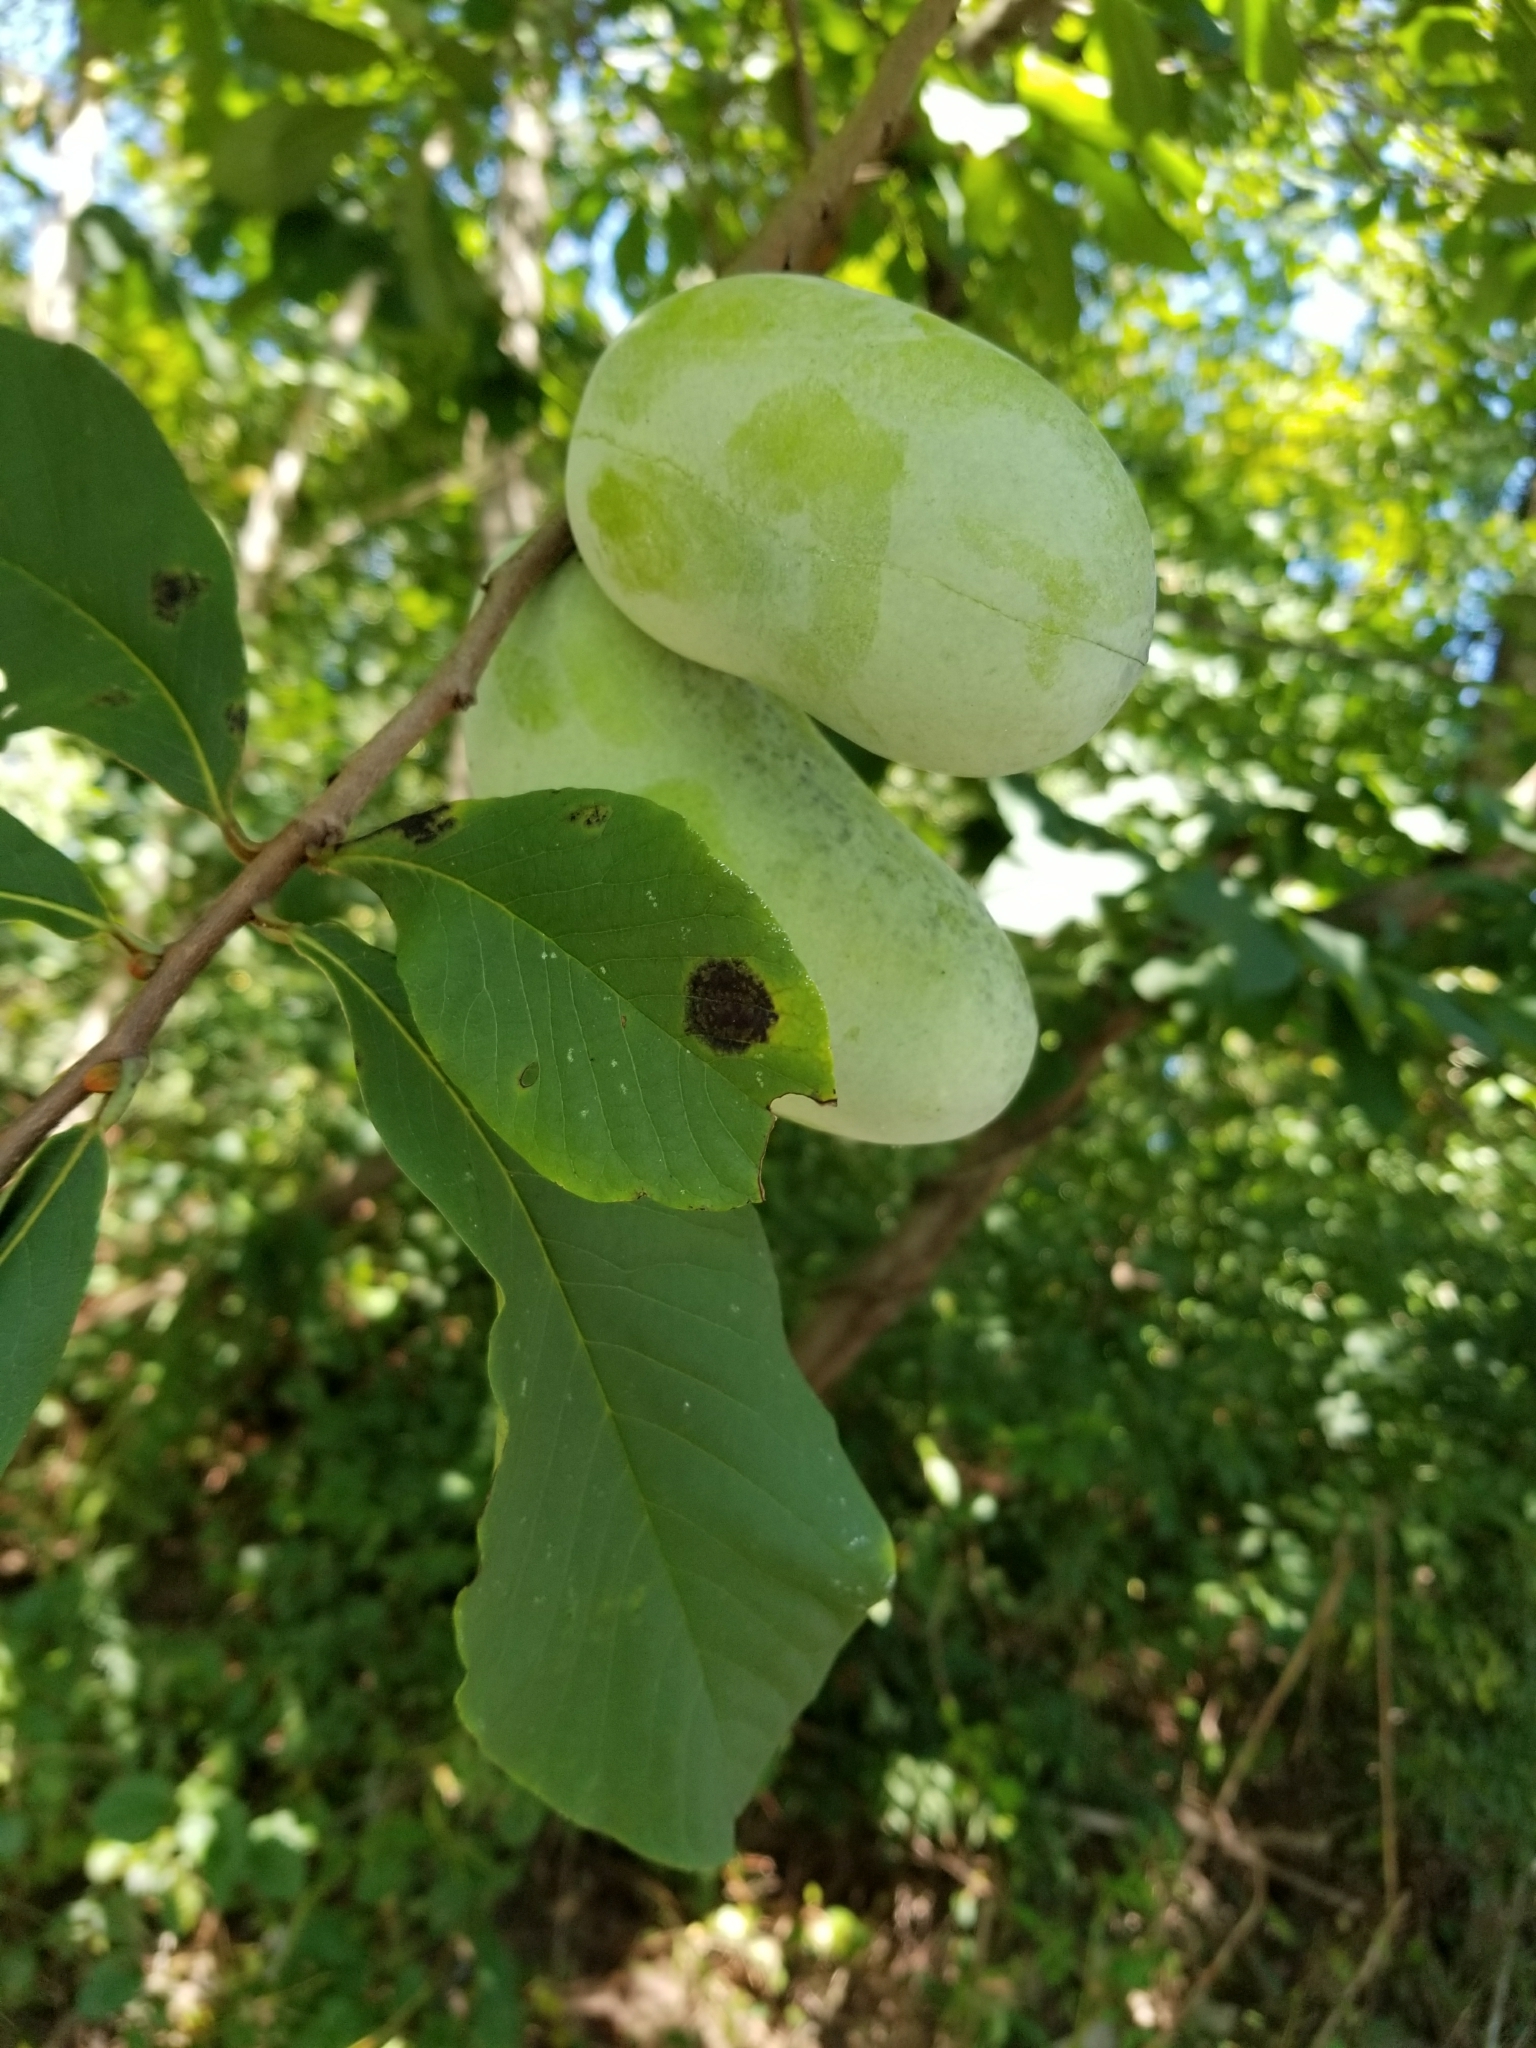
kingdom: Plantae
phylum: Tracheophyta
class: Magnoliopsida
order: Magnoliales
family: Annonaceae
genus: Asimina
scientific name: Asimina triloba
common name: Dog-banana
